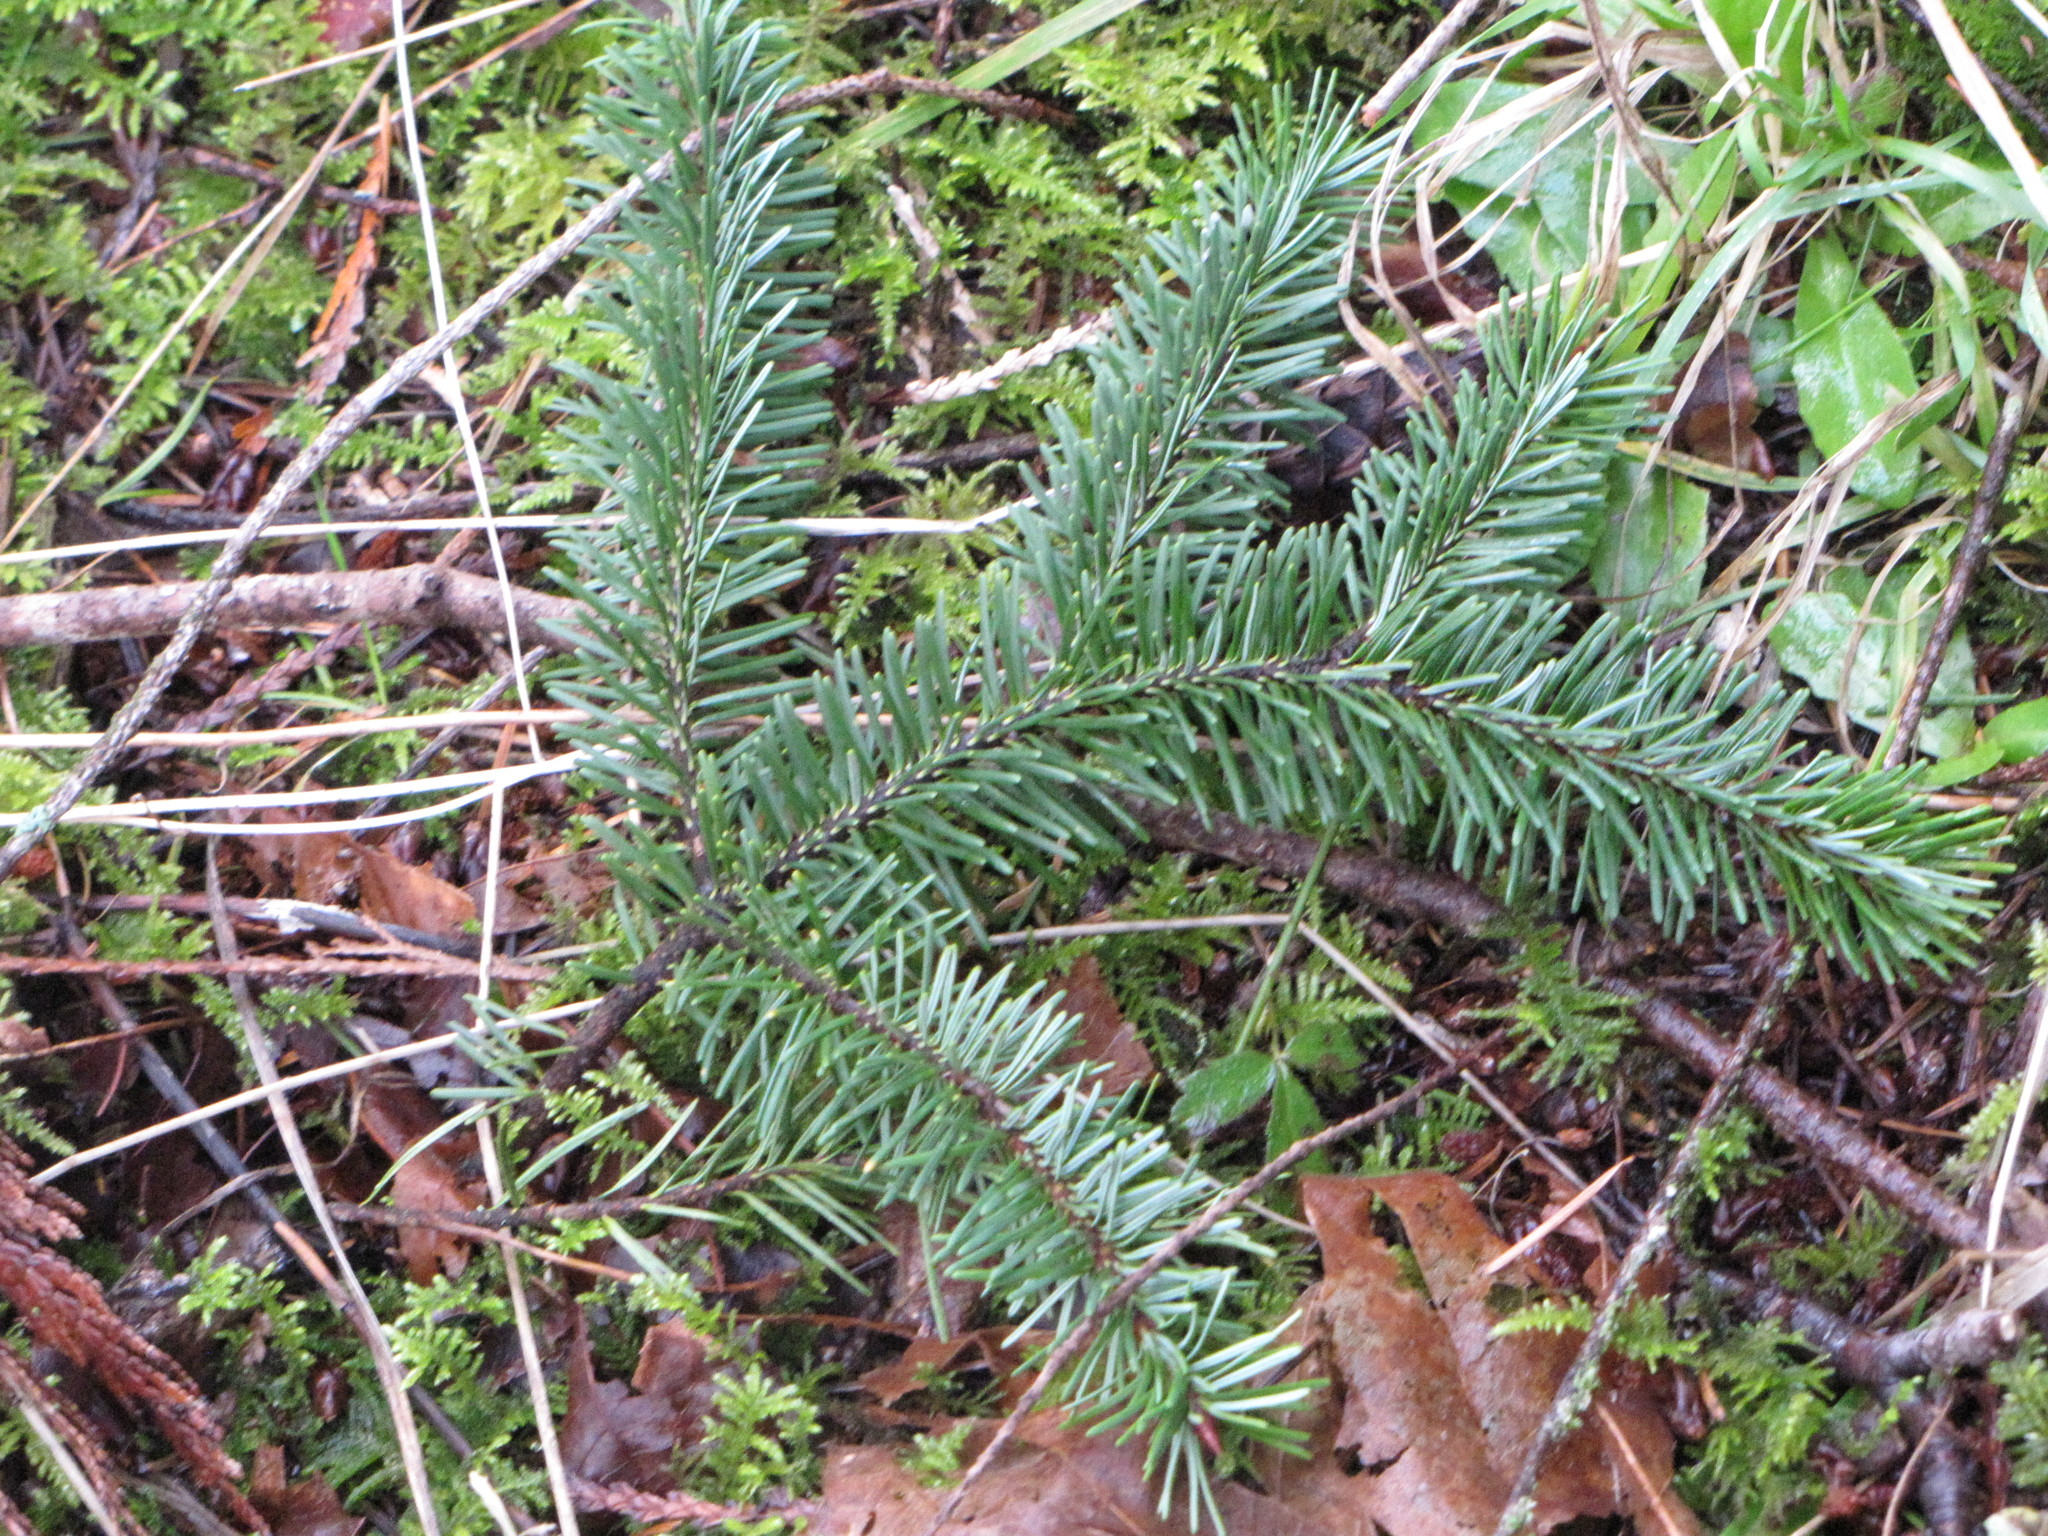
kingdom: Plantae
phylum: Tracheophyta
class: Pinopsida
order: Pinales
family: Pinaceae
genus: Pseudotsuga
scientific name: Pseudotsuga menziesii
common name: Douglas fir
